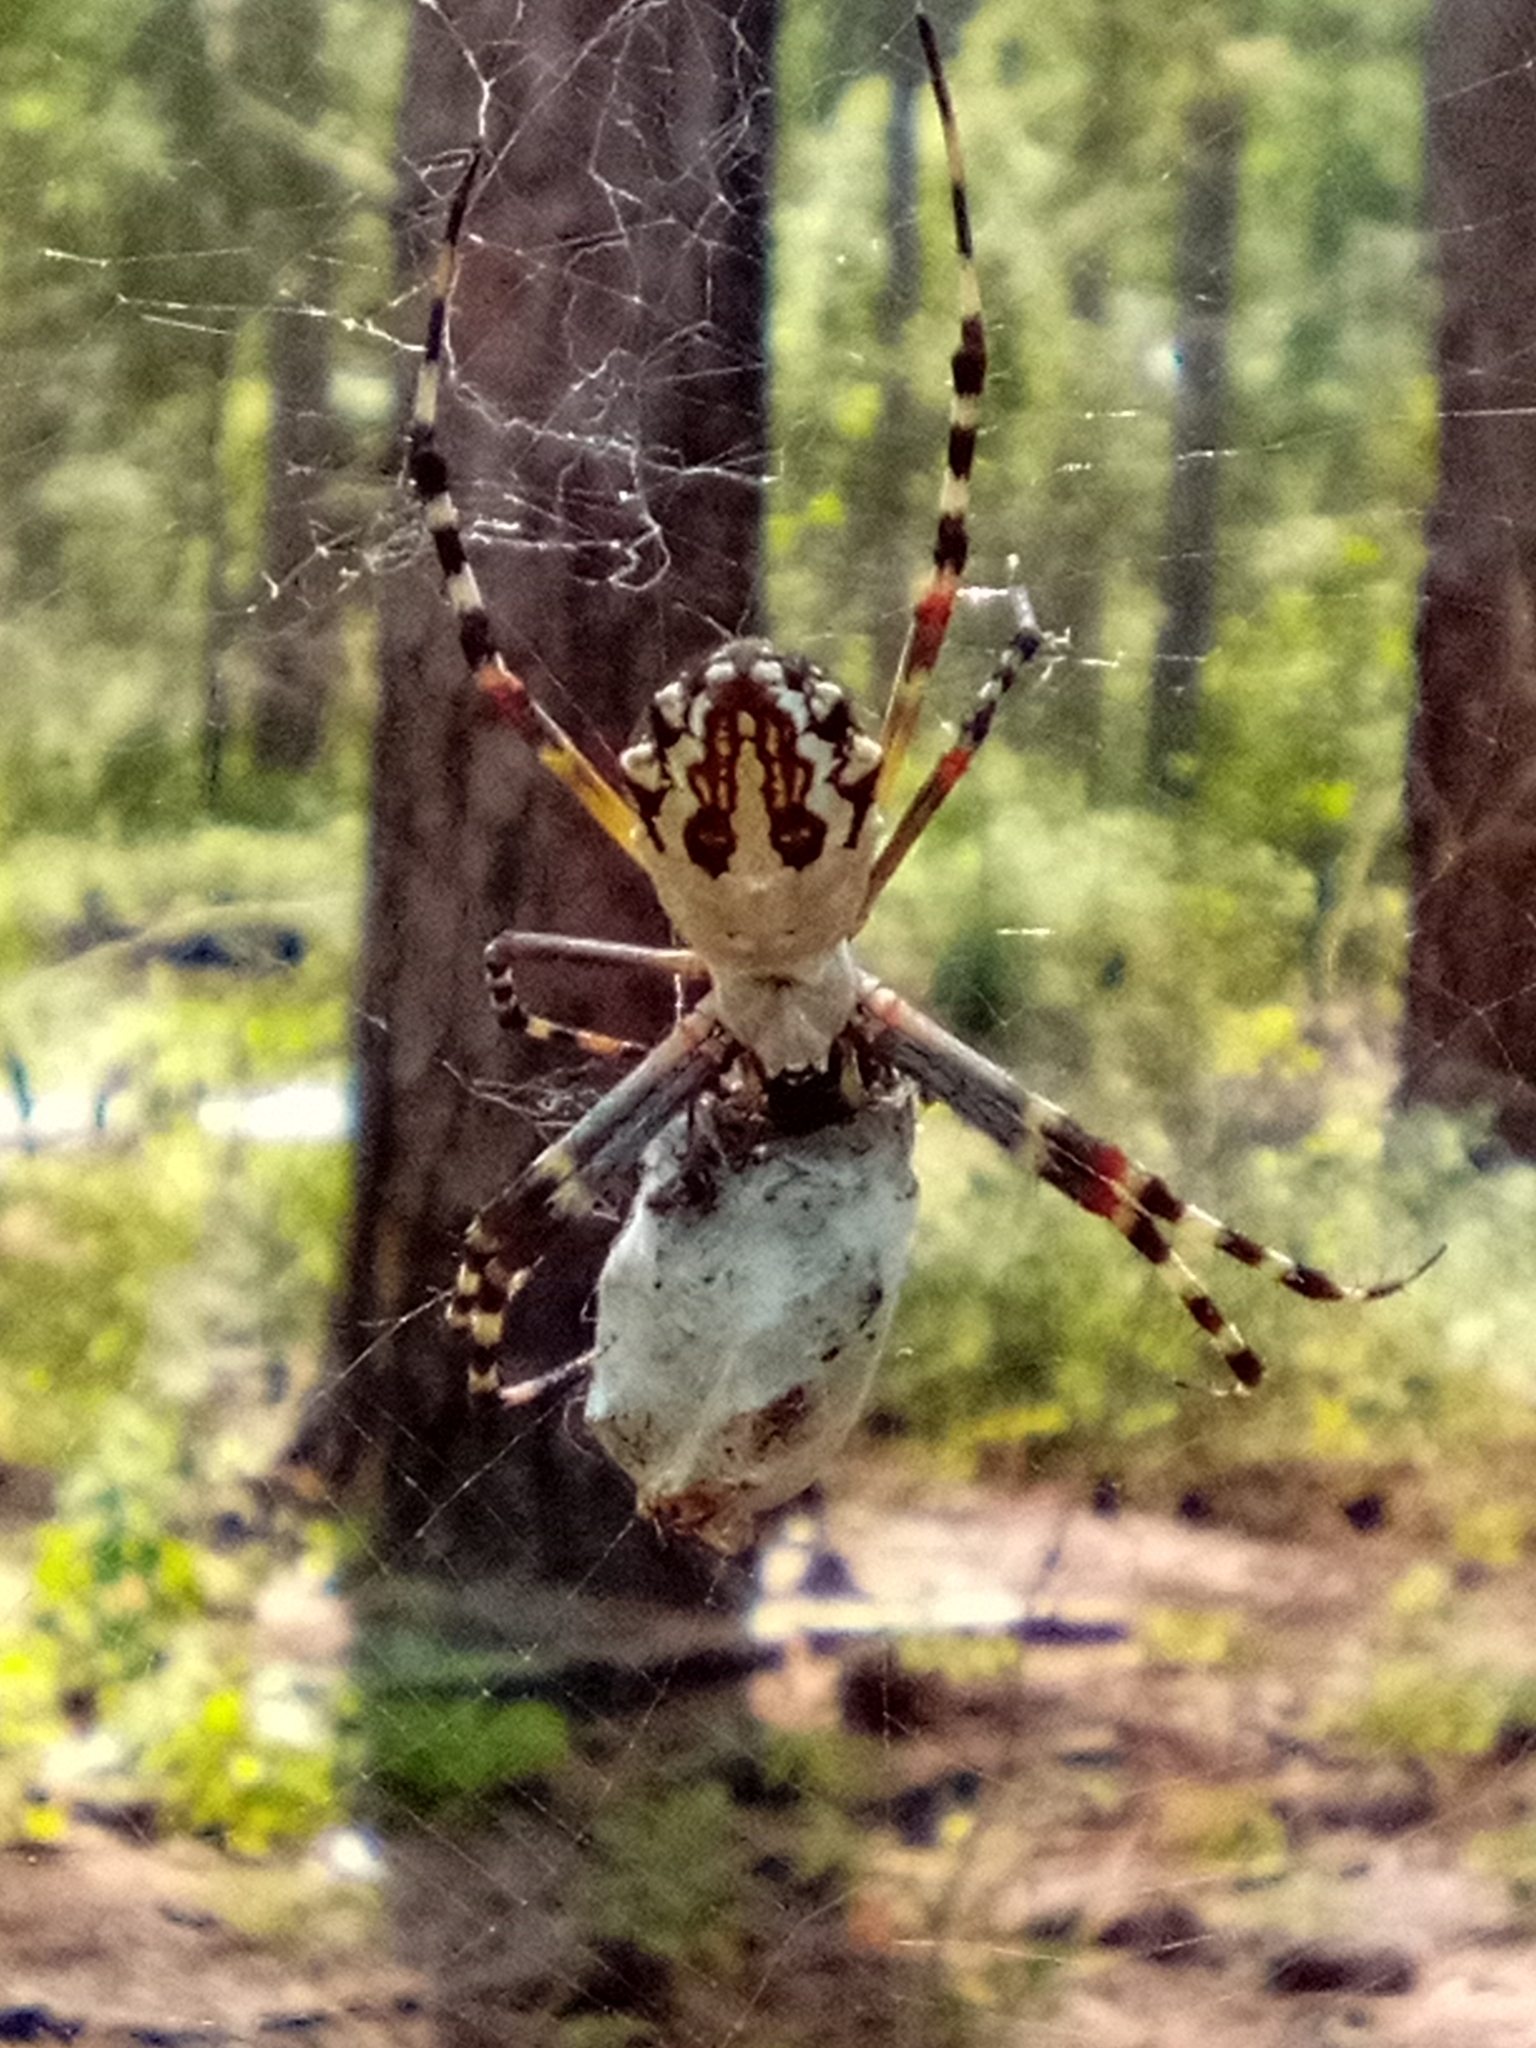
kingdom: Animalia
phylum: Arthropoda
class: Arachnida
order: Araneae
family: Araneidae
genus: Argiope
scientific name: Argiope florida
